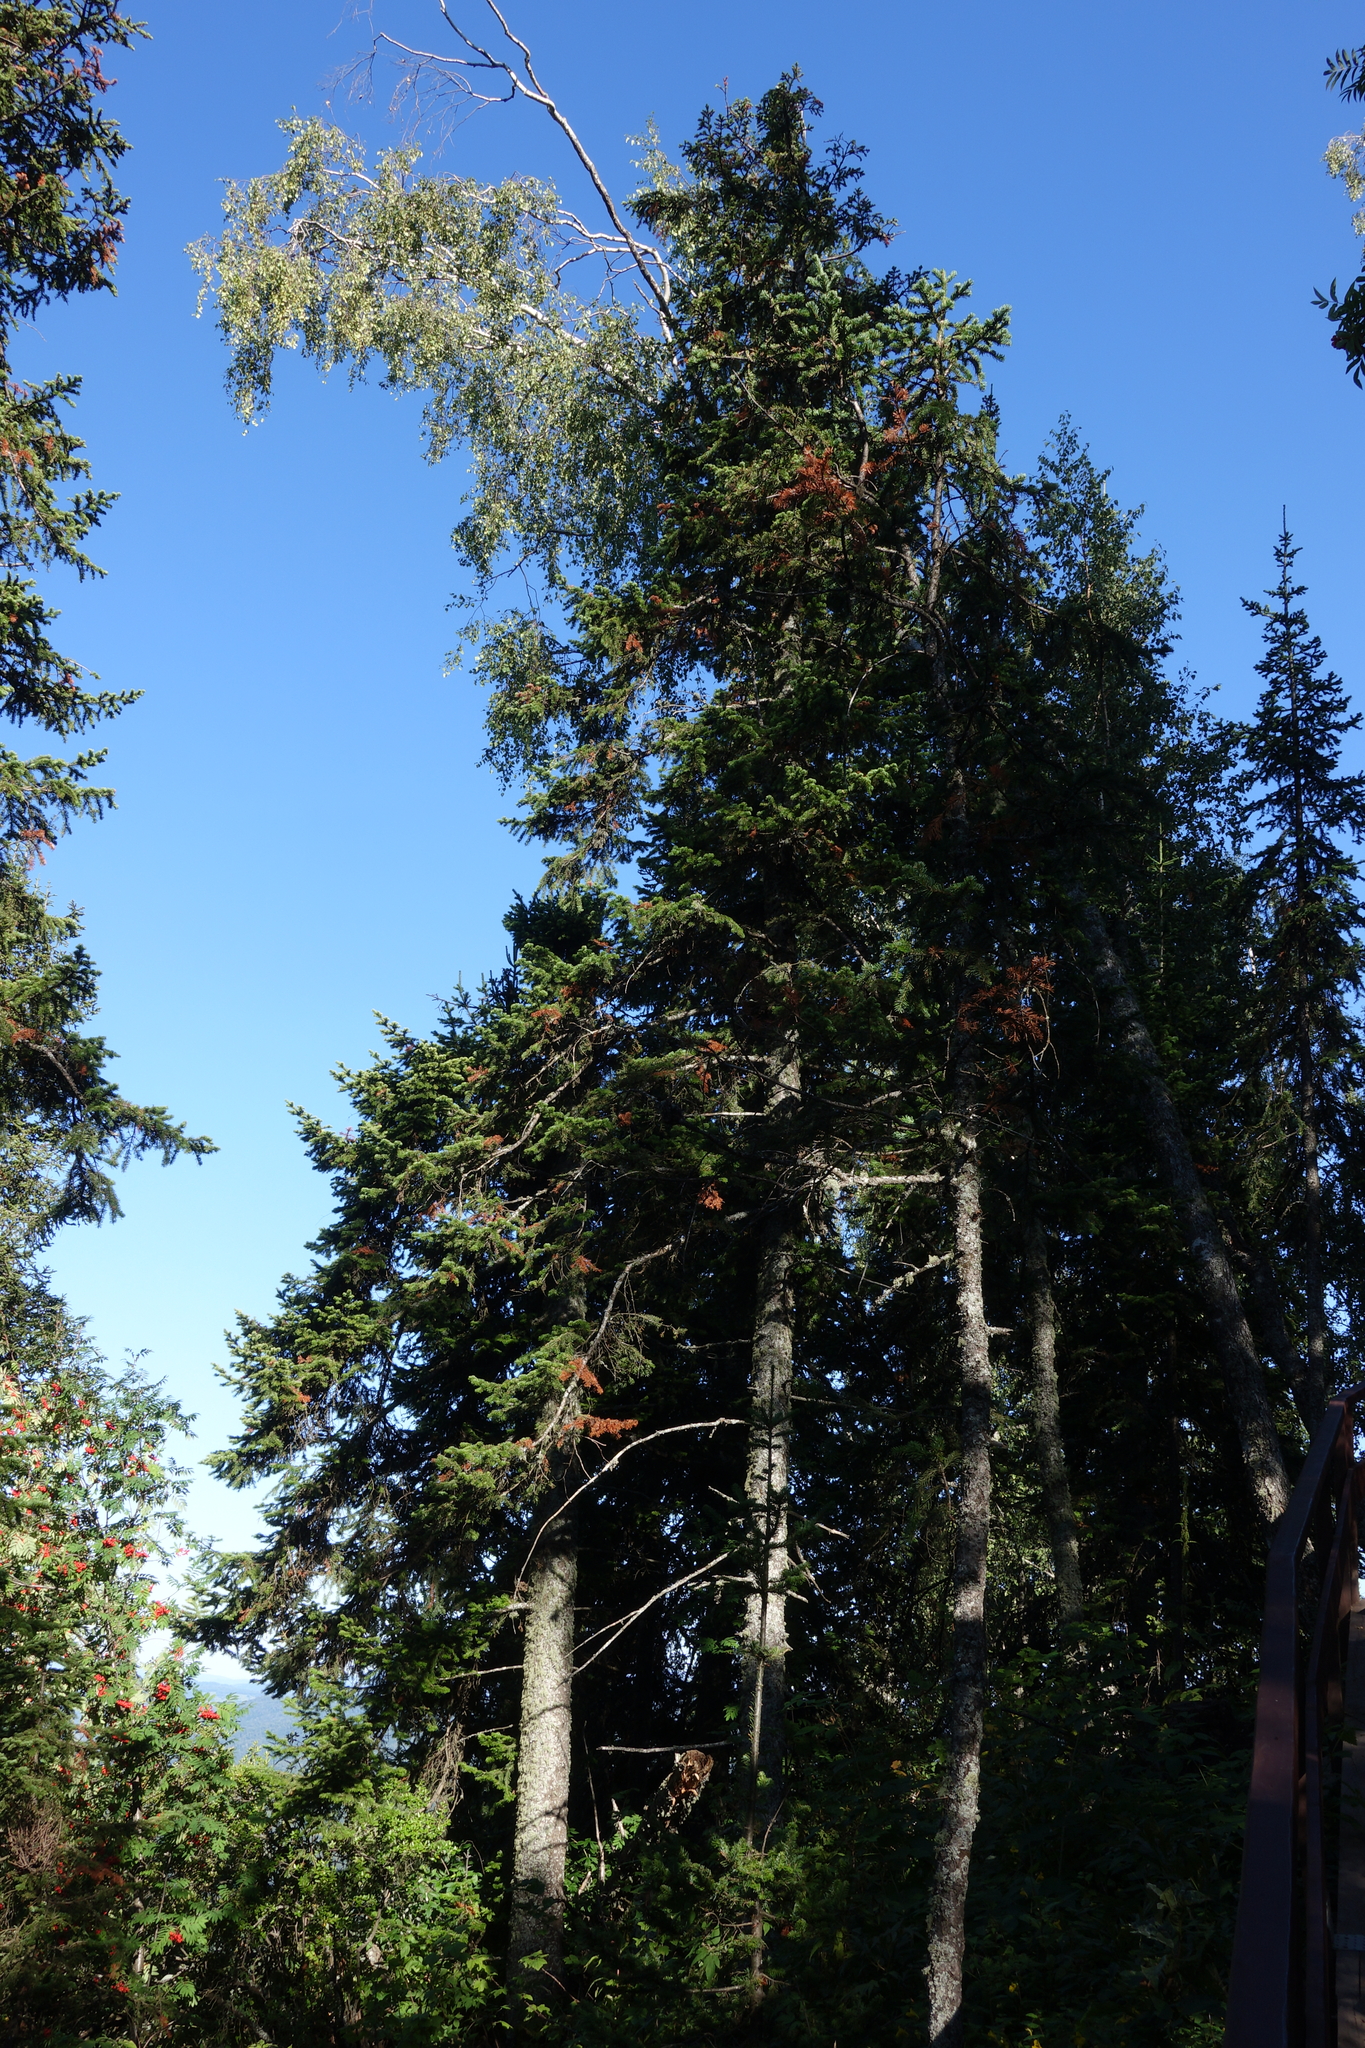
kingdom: Plantae
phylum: Tracheophyta
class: Pinopsida
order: Pinales
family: Pinaceae
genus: Abies
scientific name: Abies sibirica
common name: Siberian fir
